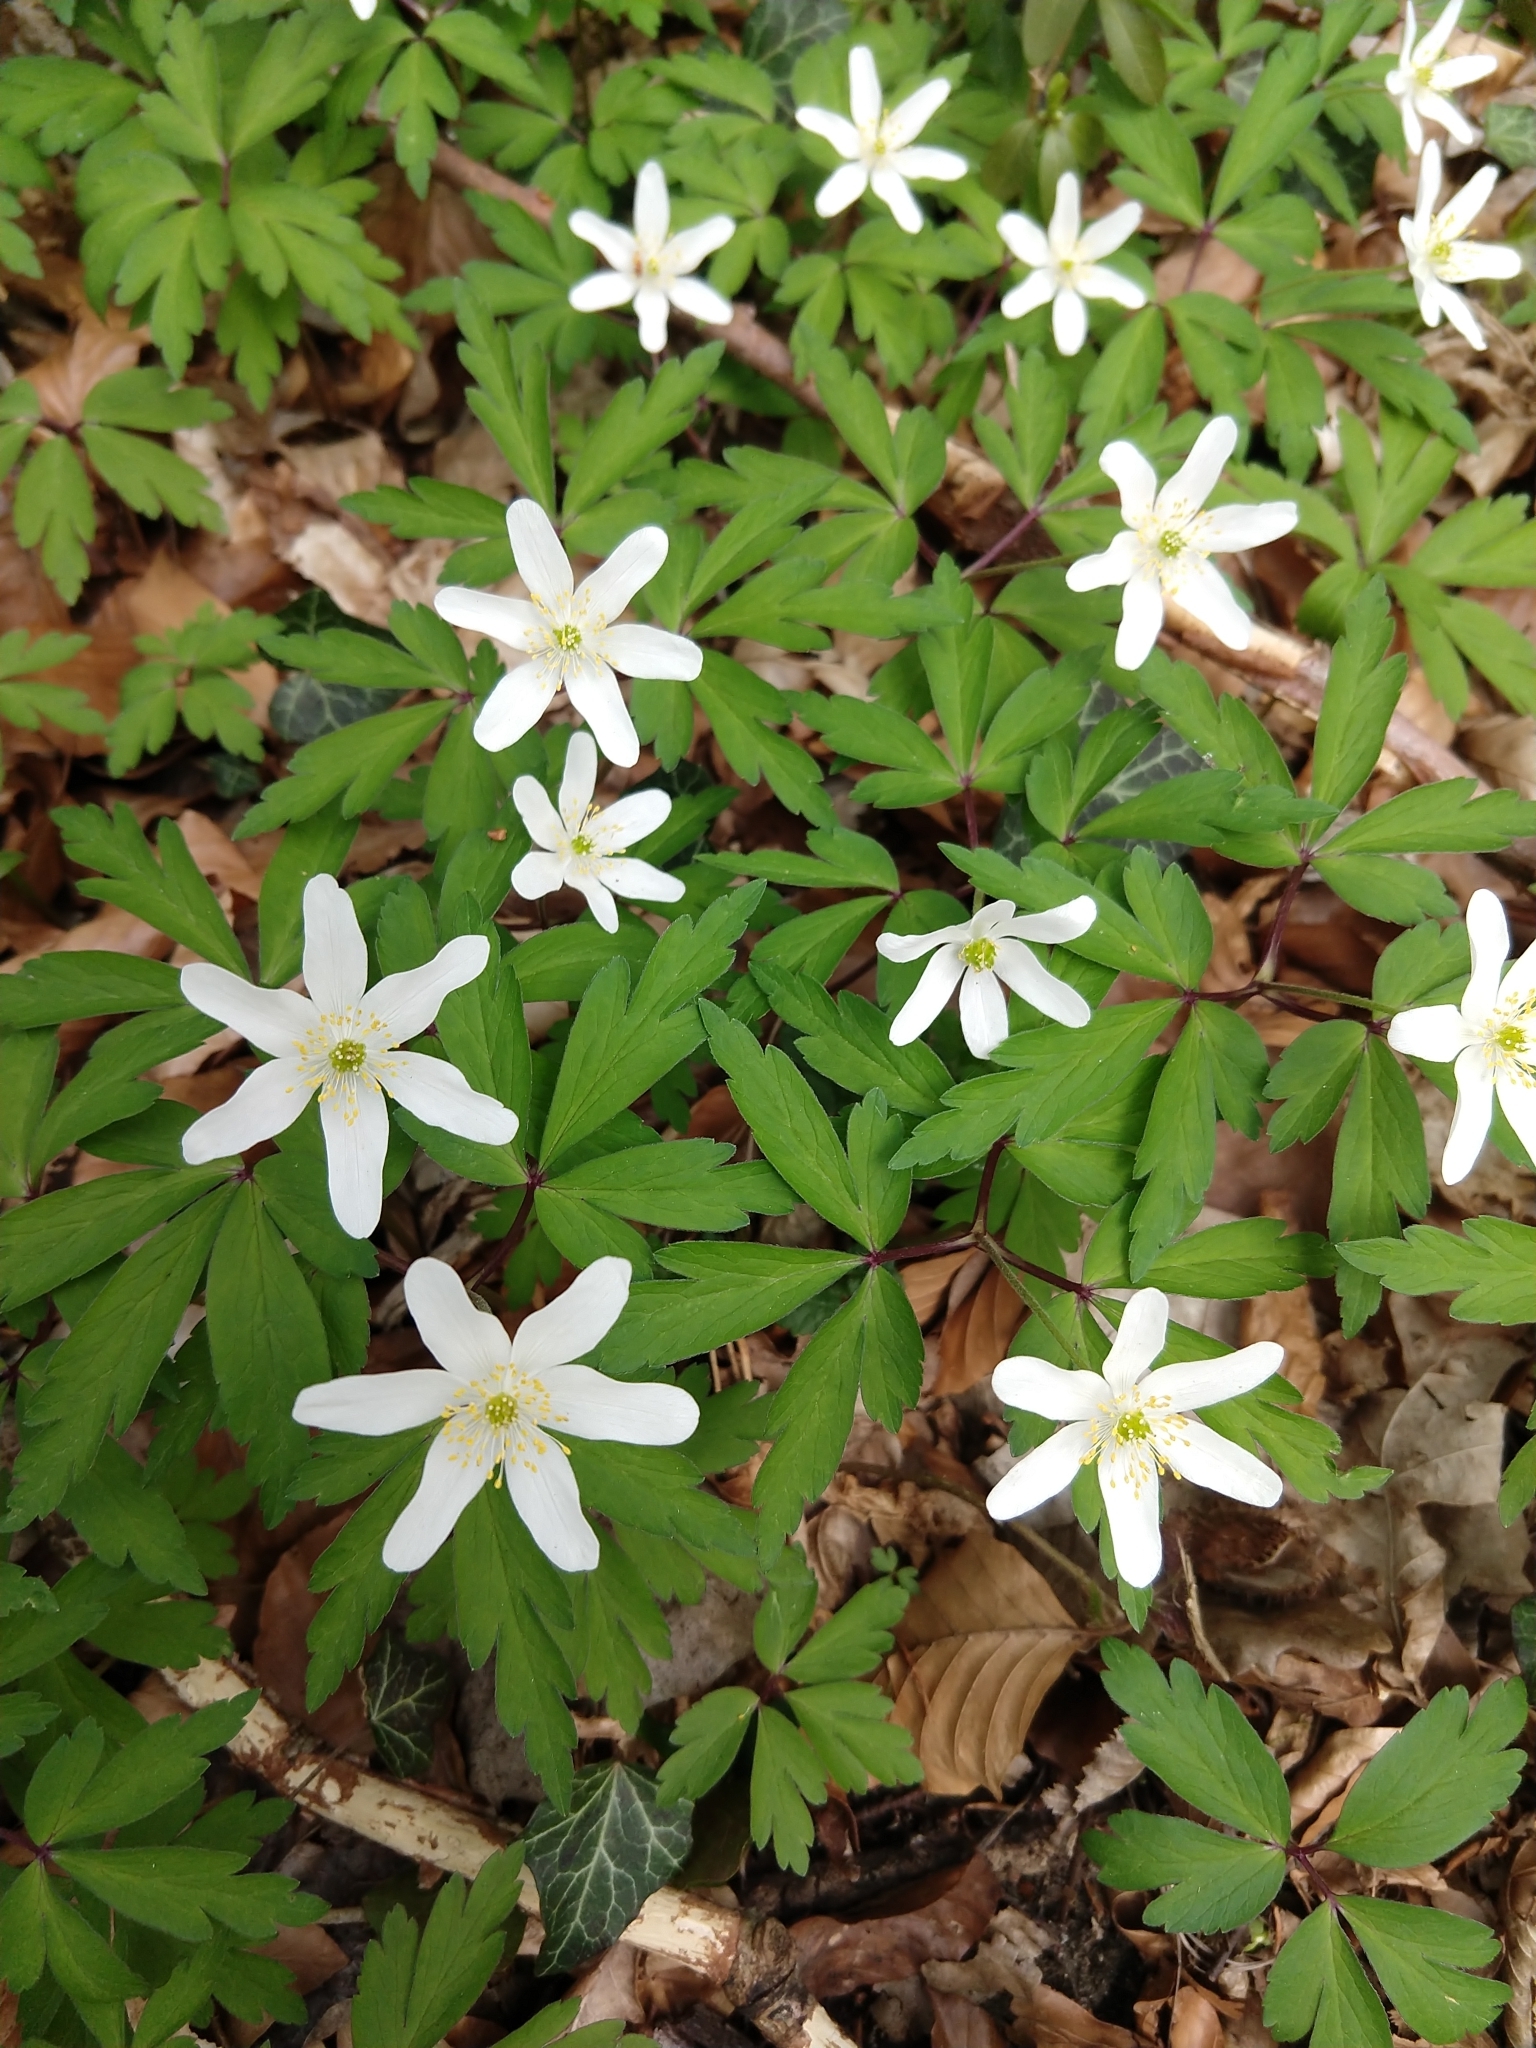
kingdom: Plantae
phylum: Tracheophyta
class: Magnoliopsida
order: Ranunculales
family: Ranunculaceae
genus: Anemone
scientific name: Anemone nemorosa
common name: Wood anemone
